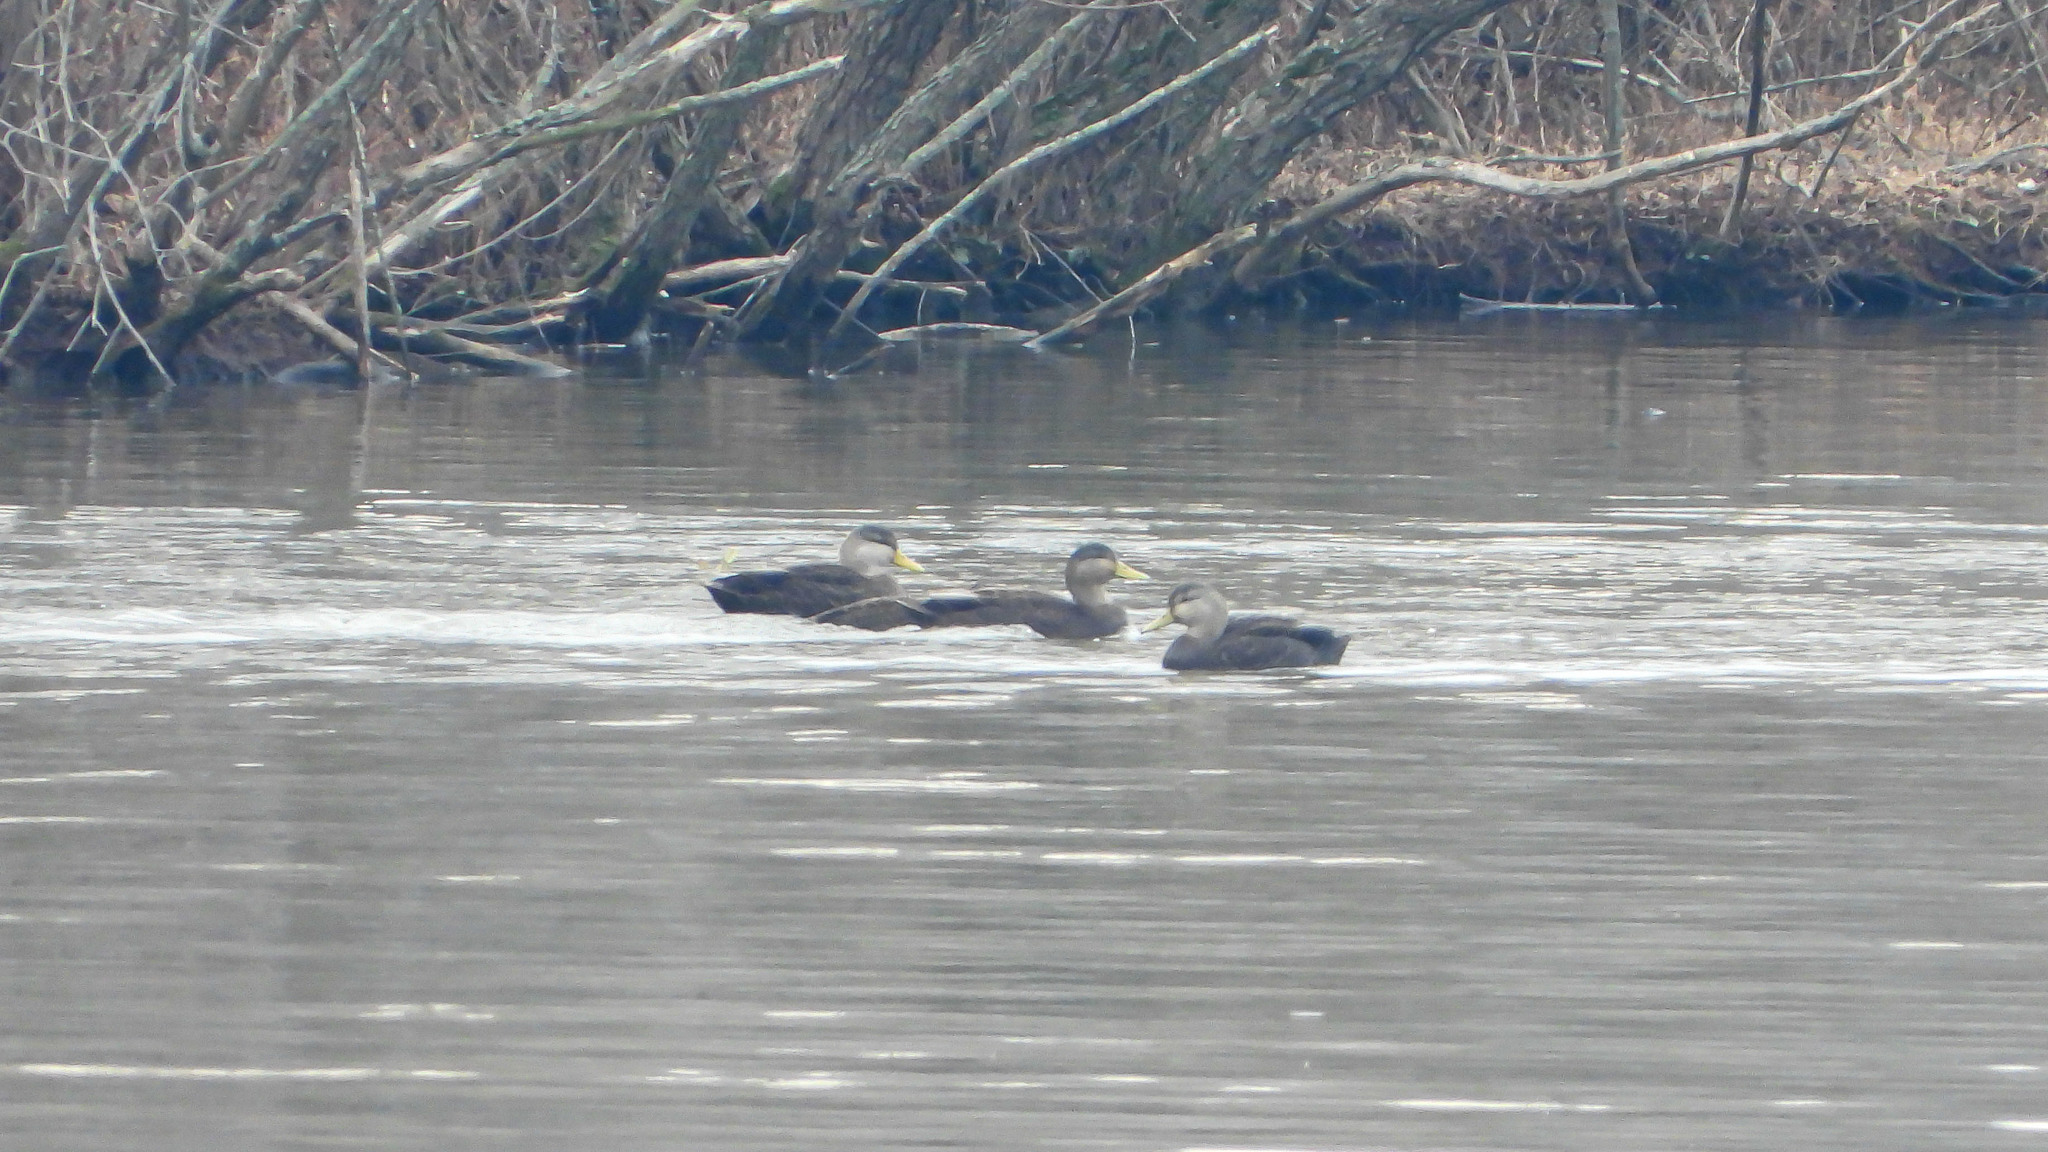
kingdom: Animalia
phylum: Chordata
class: Aves
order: Anseriformes
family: Anatidae
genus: Anas
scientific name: Anas rubripes
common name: American black duck
